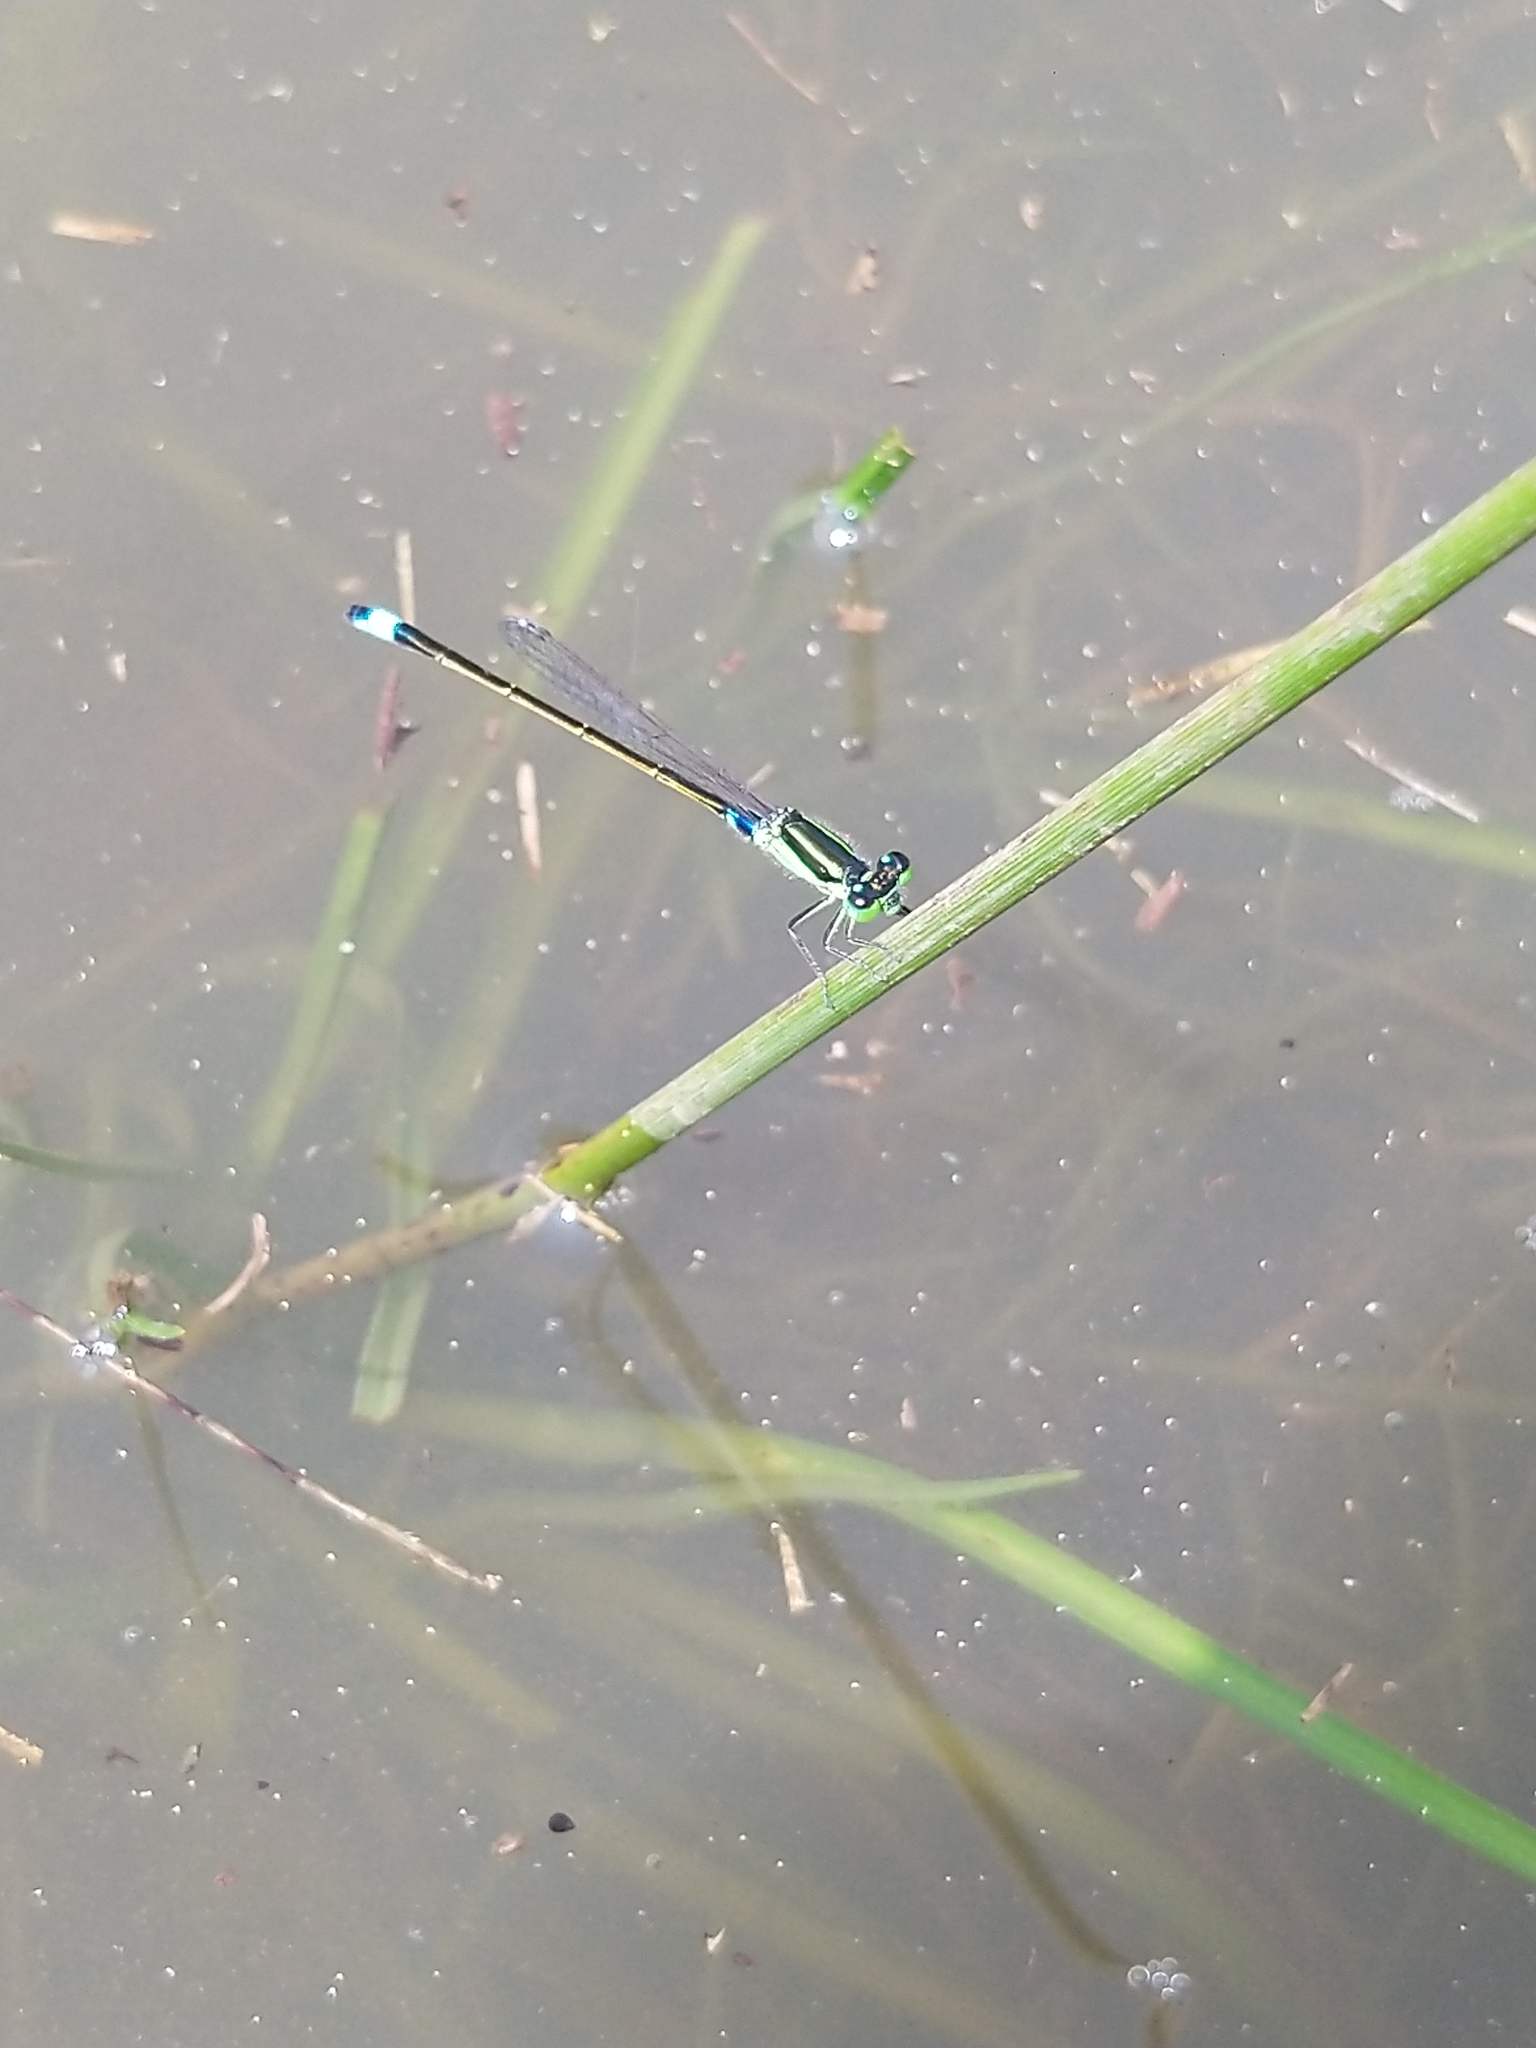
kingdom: Animalia
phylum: Arthropoda
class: Insecta
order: Odonata
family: Coenagrionidae
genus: Ischnura
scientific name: Ischnura senegalensis
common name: Tropical bluetail
